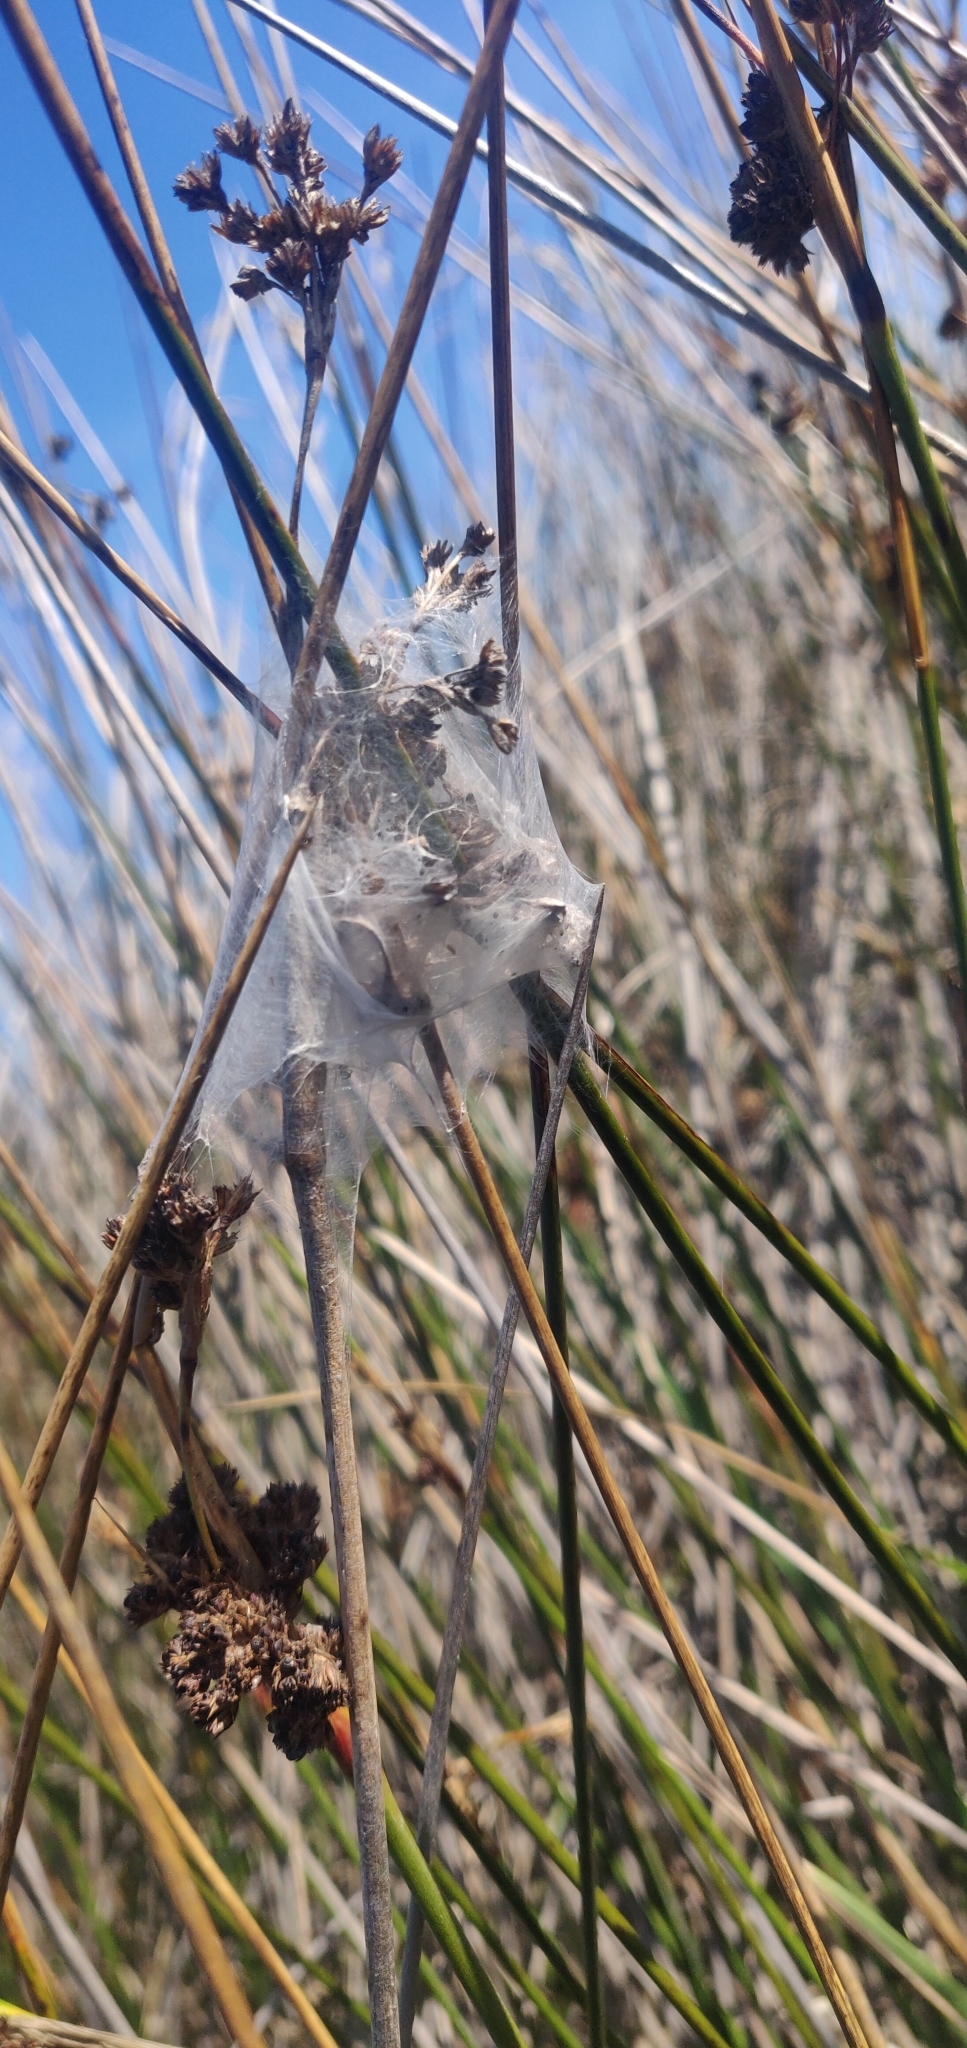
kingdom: Animalia
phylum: Arthropoda
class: Arachnida
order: Araneae
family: Pisauridae
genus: Dolomedes
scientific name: Dolomedes
